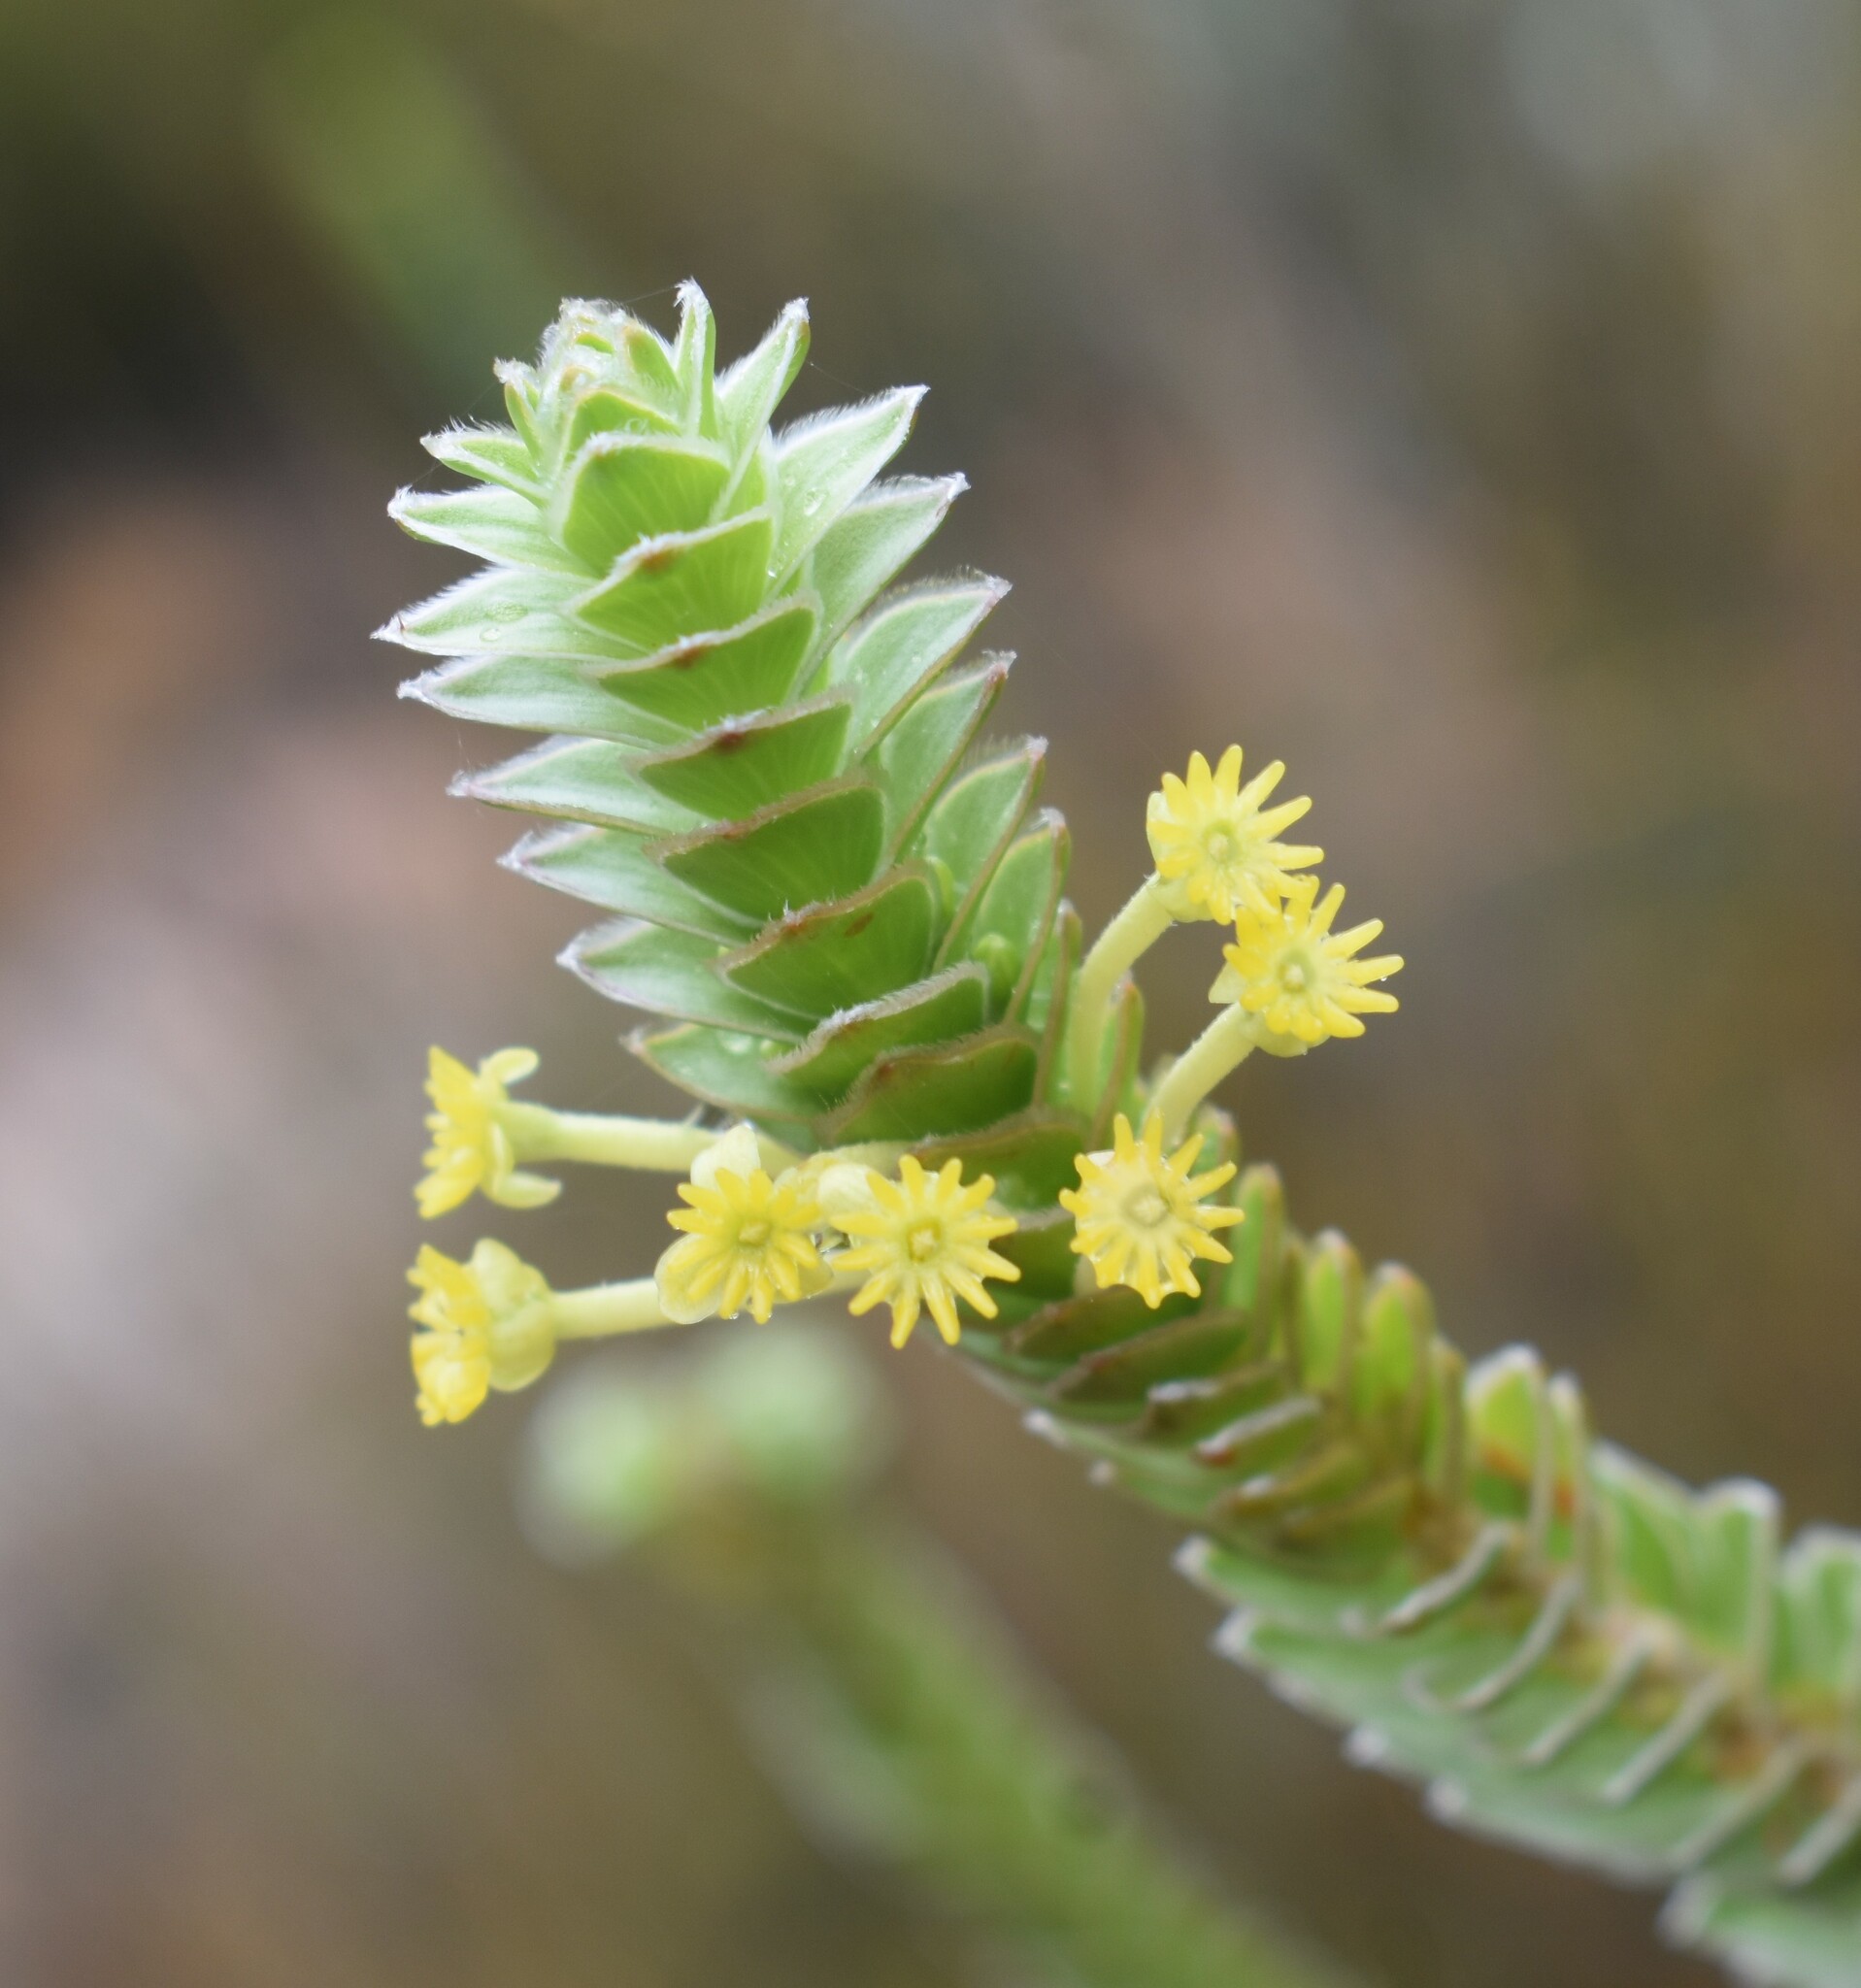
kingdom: Plantae
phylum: Tracheophyta
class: Magnoliopsida
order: Malvales
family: Thymelaeaceae
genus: Struthiola
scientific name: Struthiola argentea
